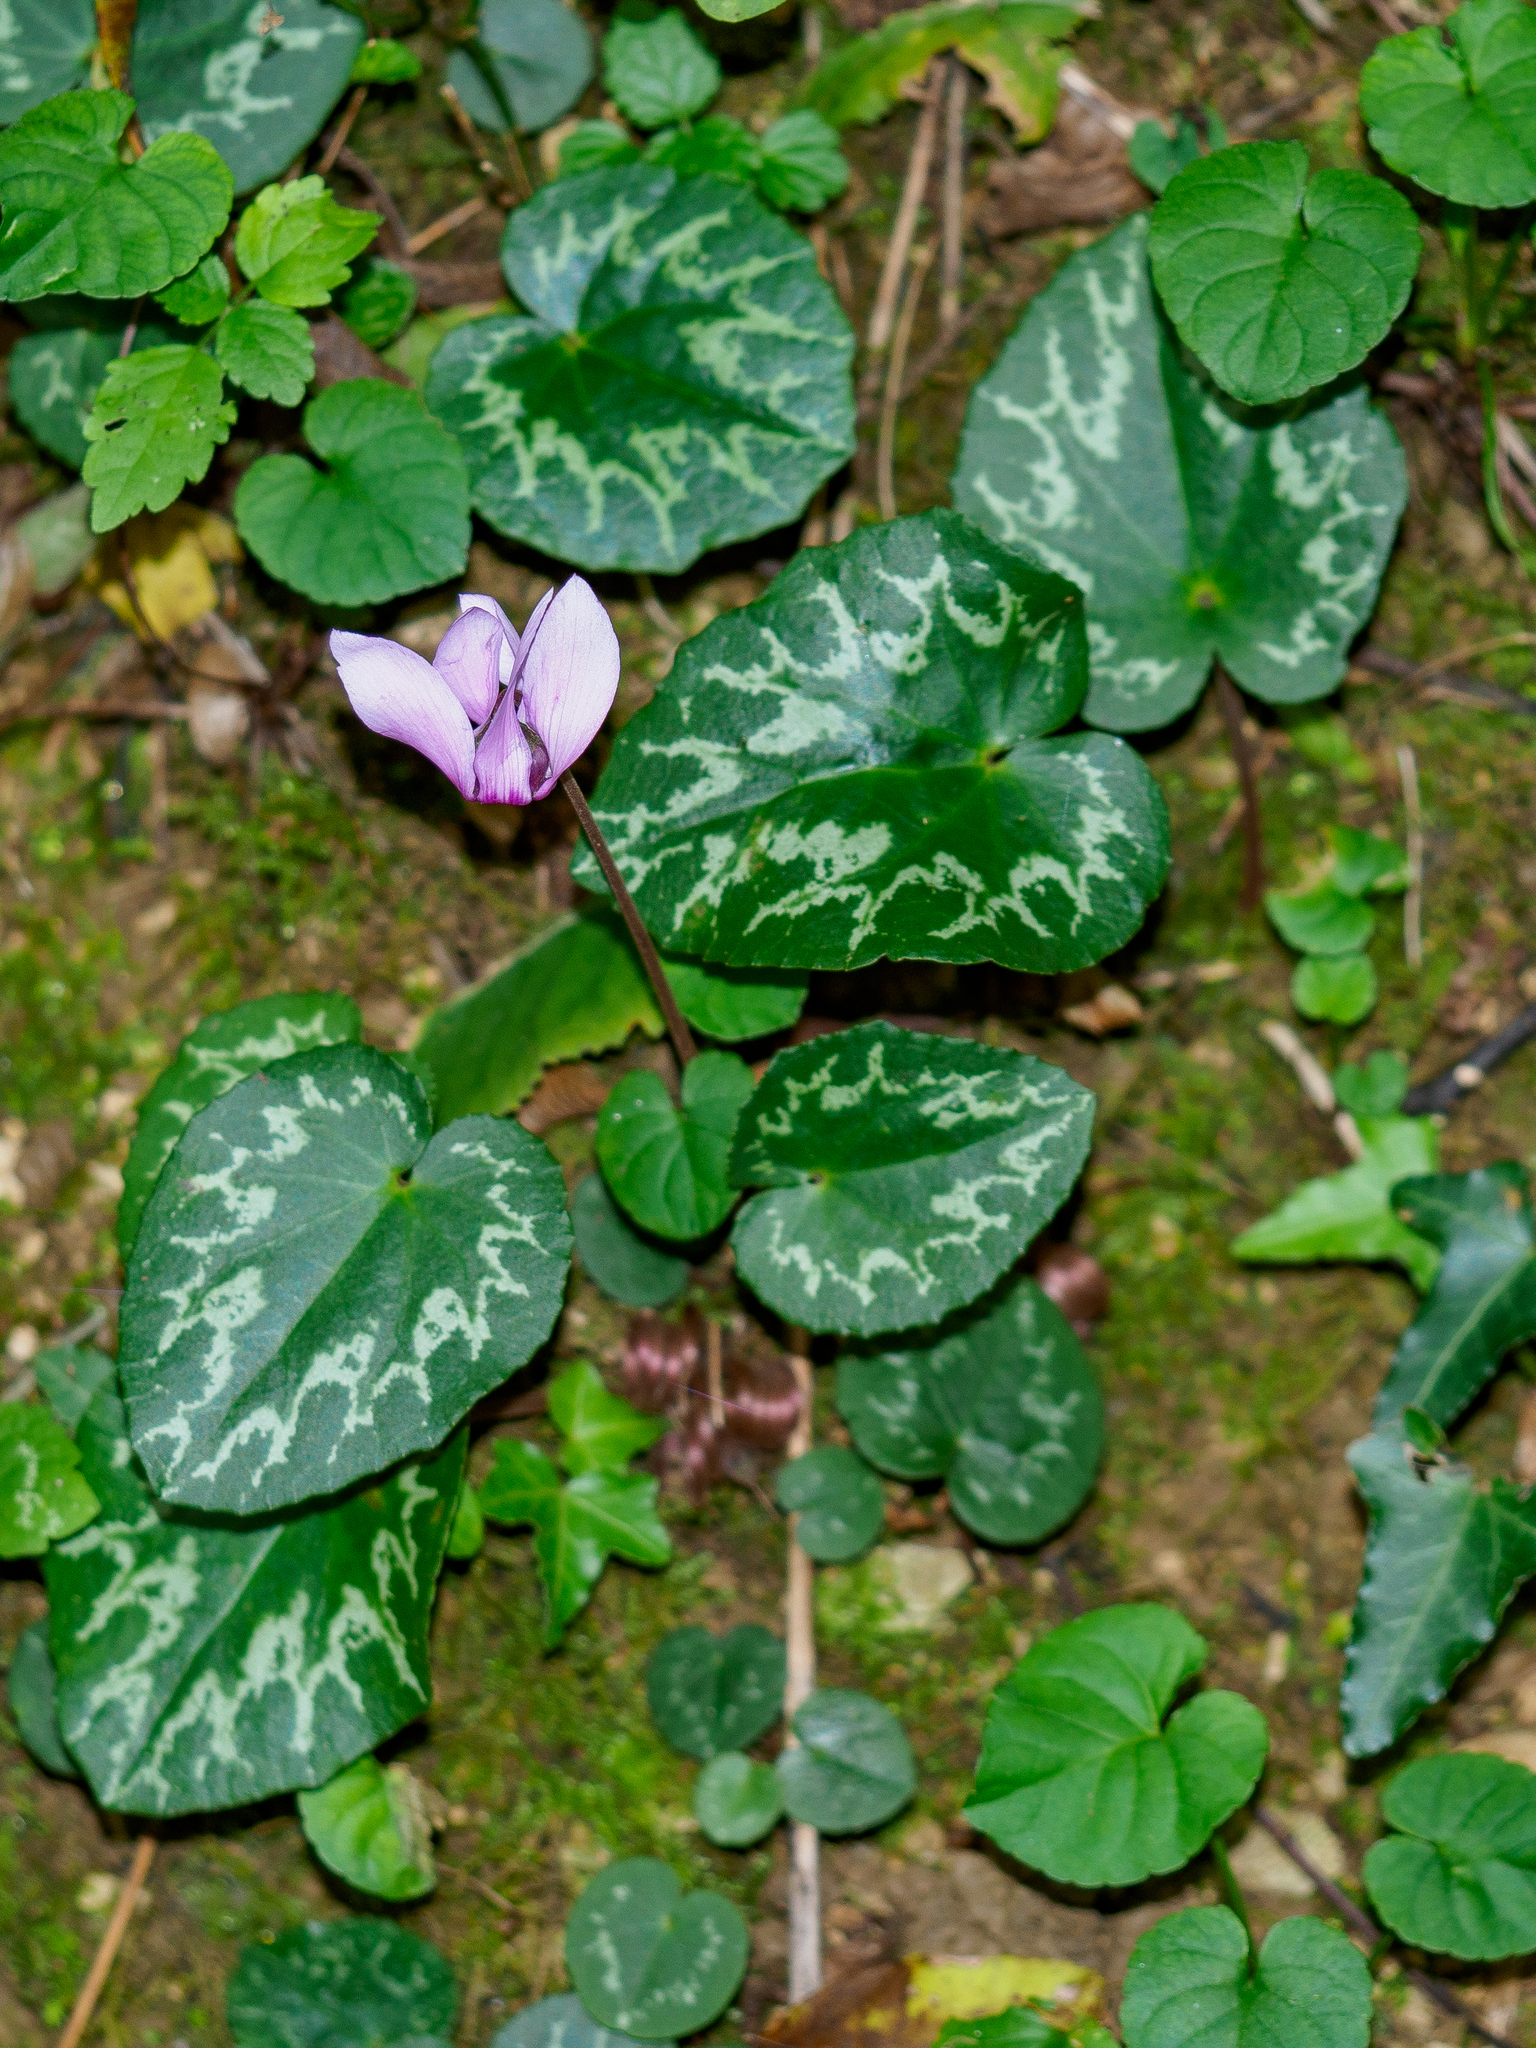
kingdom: Plantae
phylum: Tracheophyta
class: Magnoliopsida
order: Ericales
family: Primulaceae
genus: Cyclamen
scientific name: Cyclamen purpurascens
